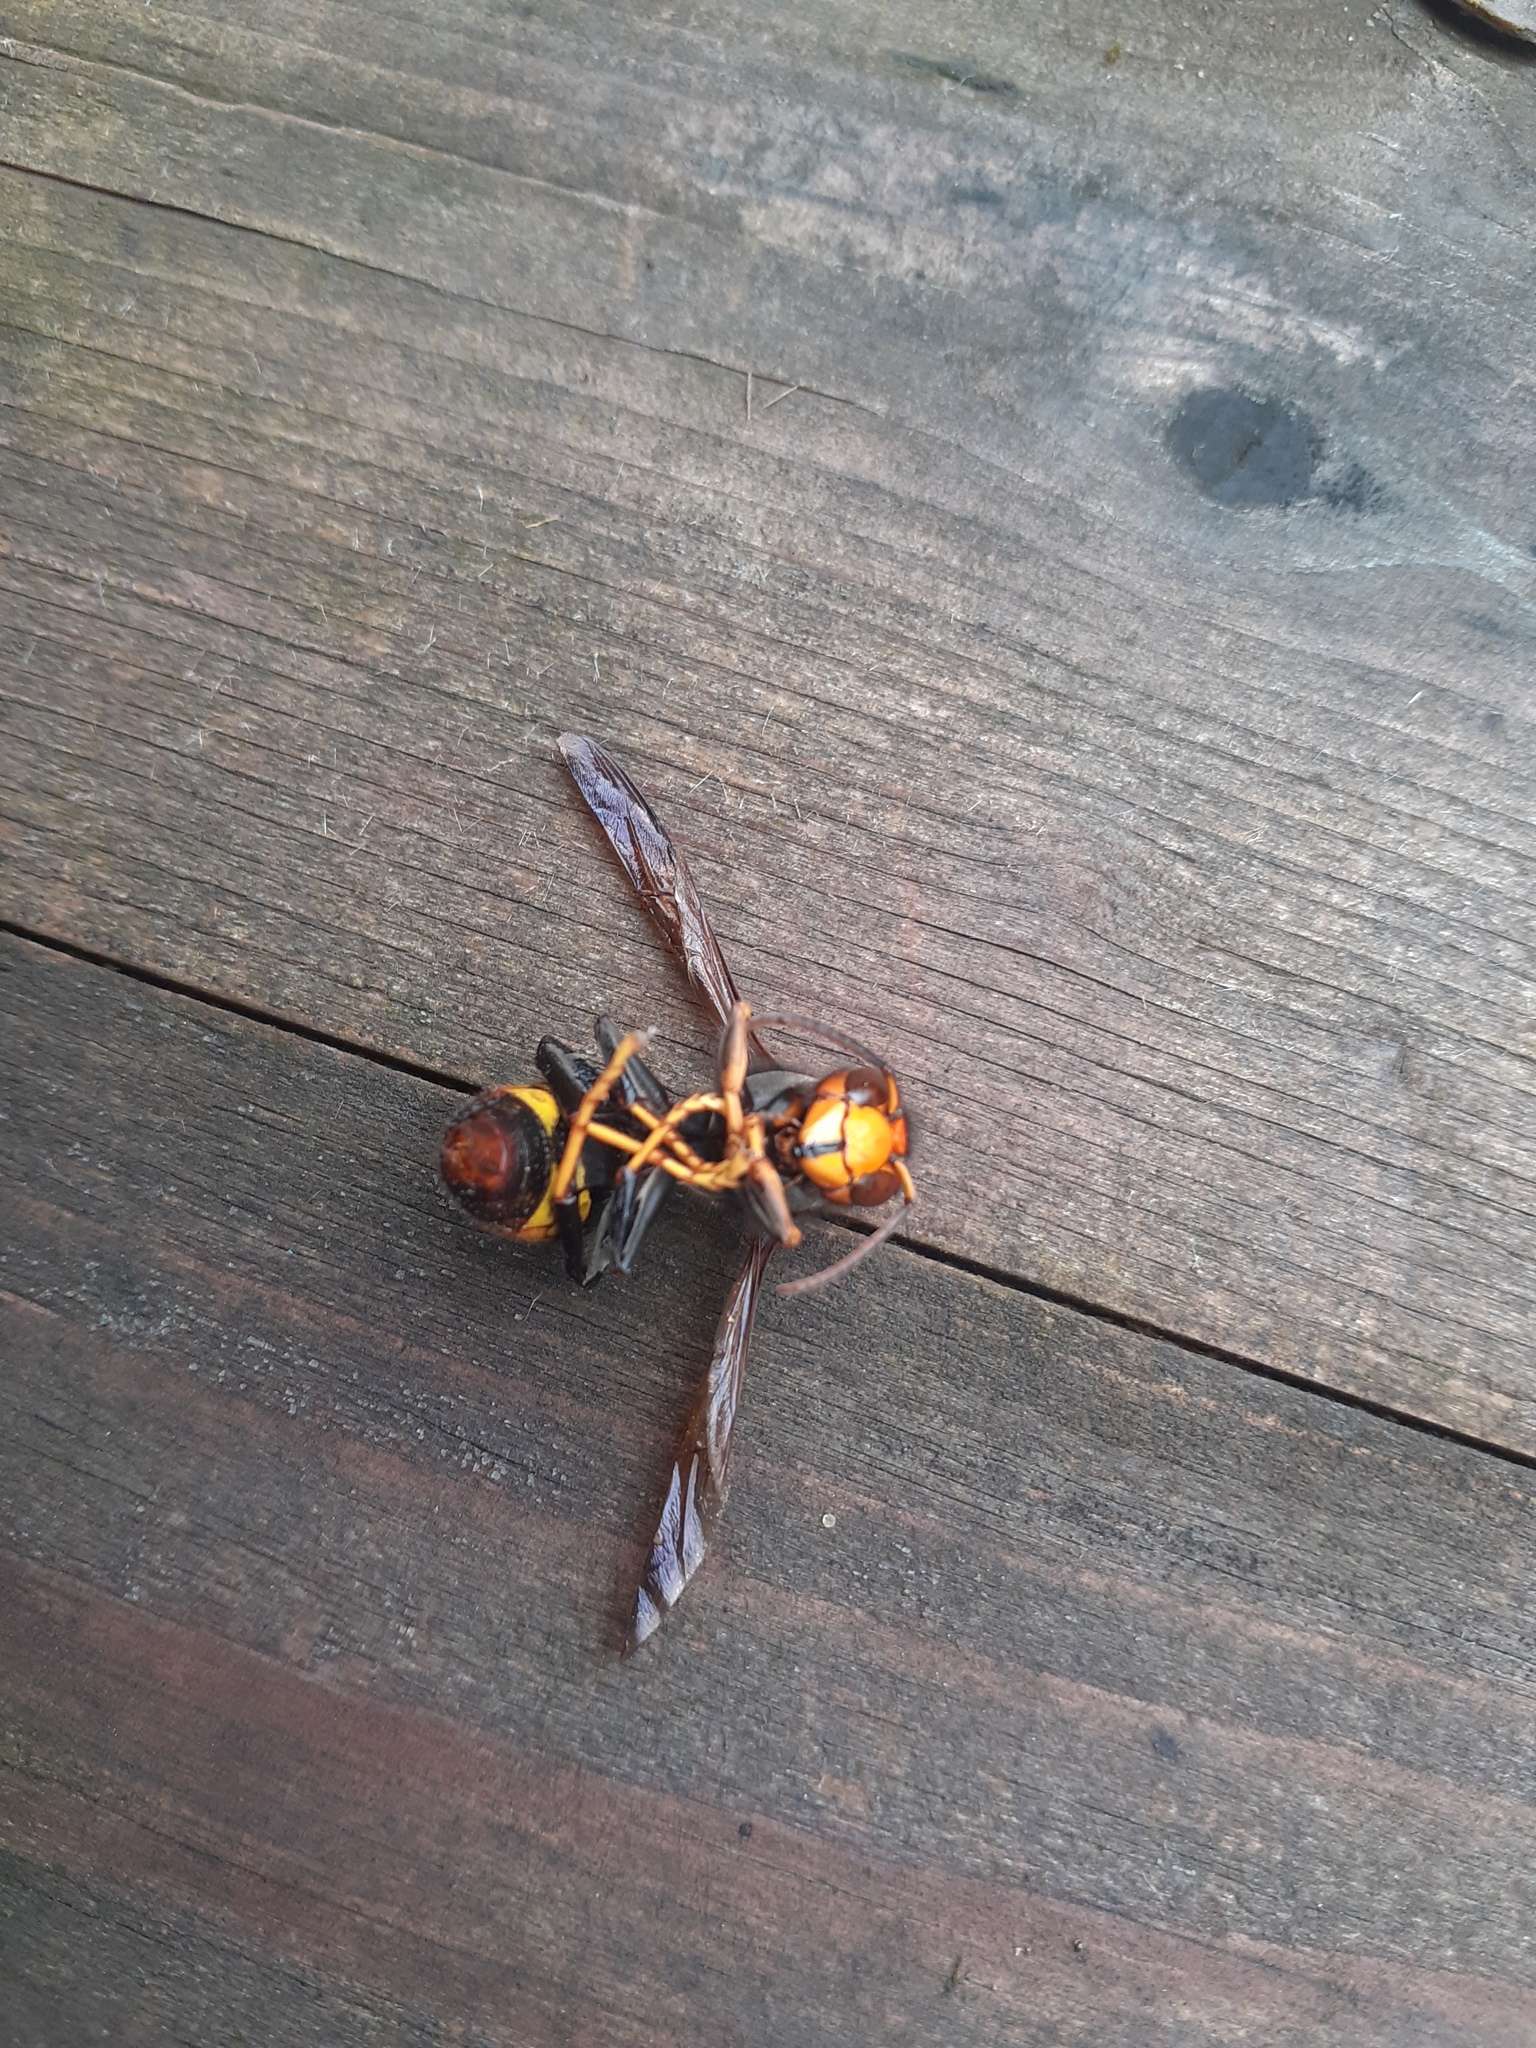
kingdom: Animalia
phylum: Arthropoda
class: Insecta
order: Hymenoptera
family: Vespidae
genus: Vespa
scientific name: Vespa velutina
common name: Asian hornet
